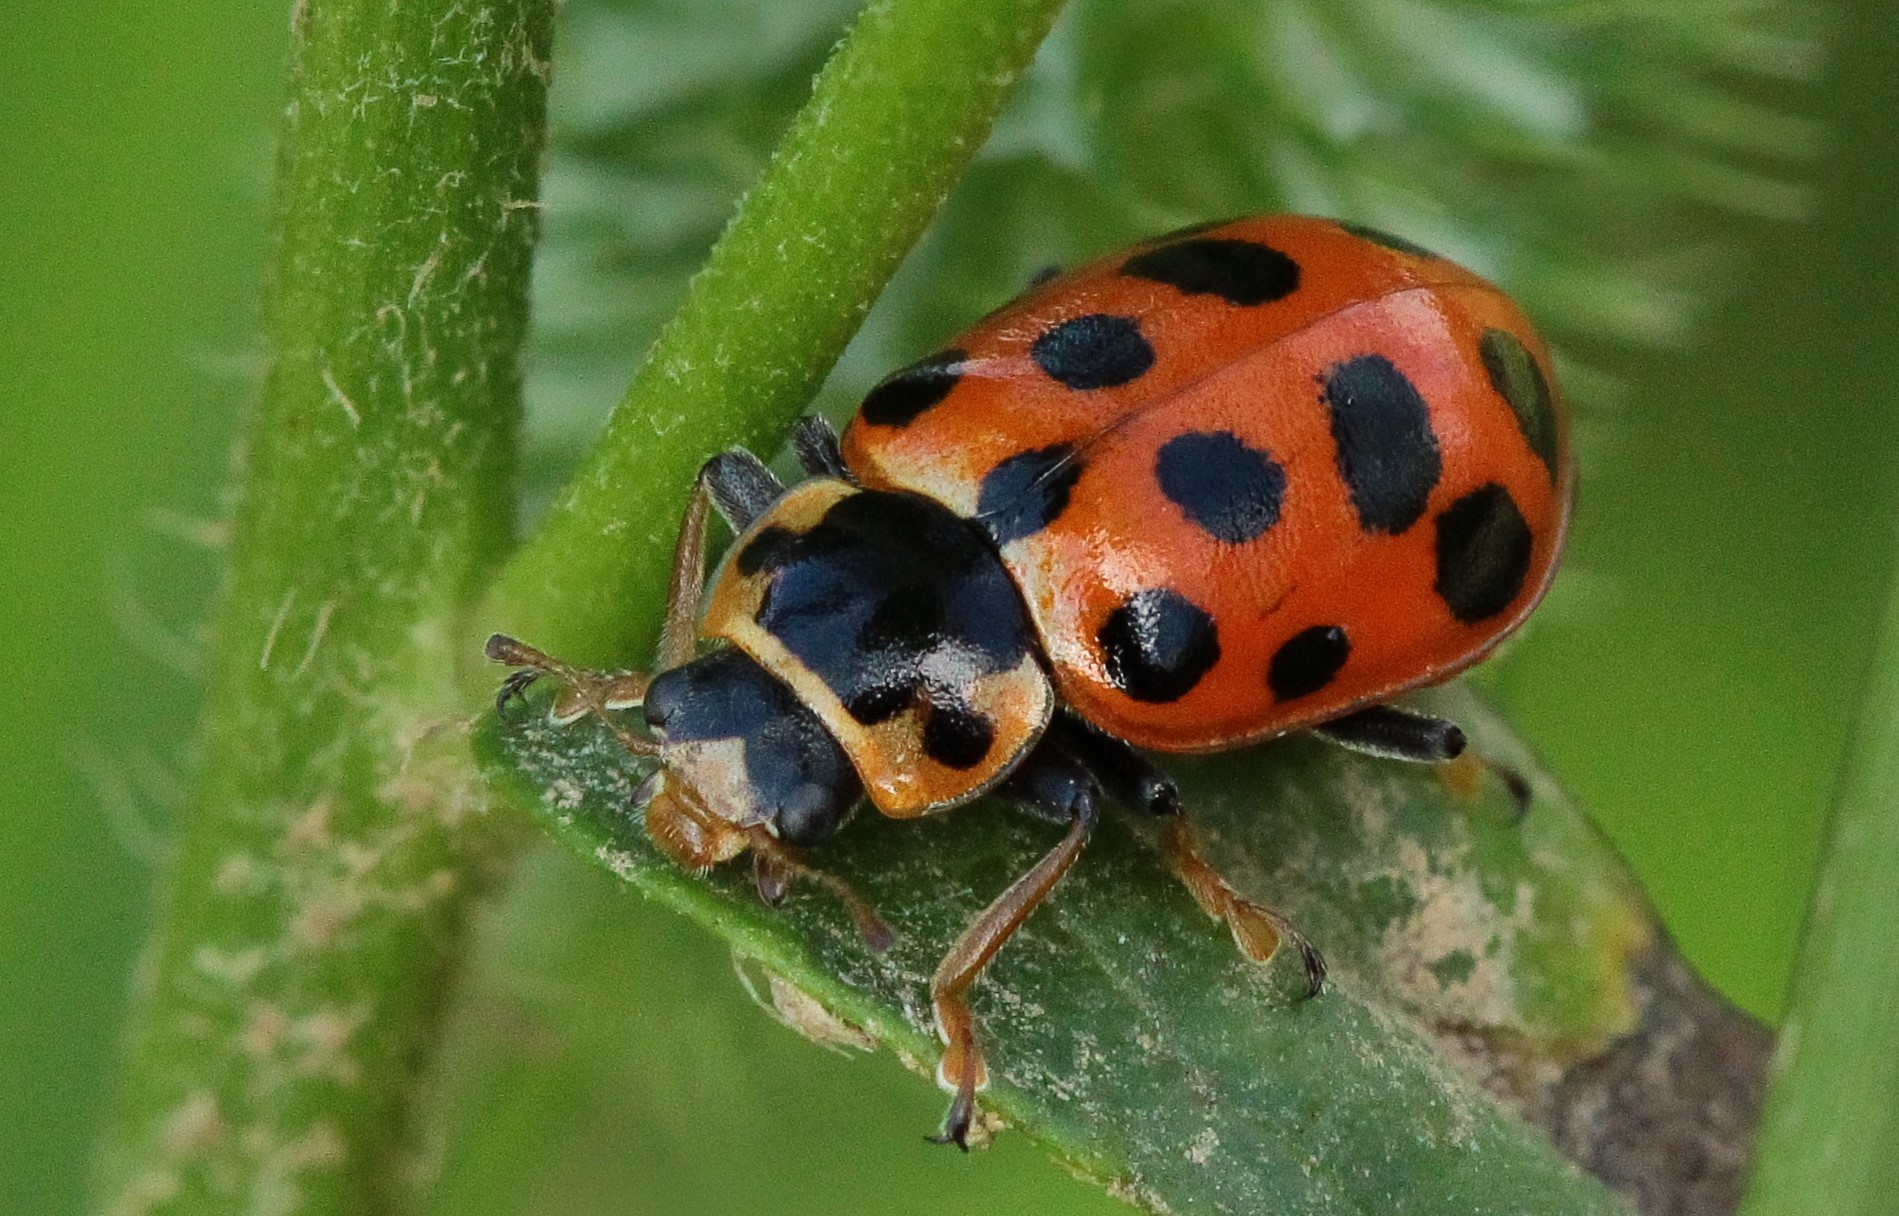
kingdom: Animalia
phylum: Arthropoda
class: Insecta
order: Coleoptera
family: Coccinellidae
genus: Hippodamia
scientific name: Hippodamia tredecimpunctata
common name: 13-spot ladybird
